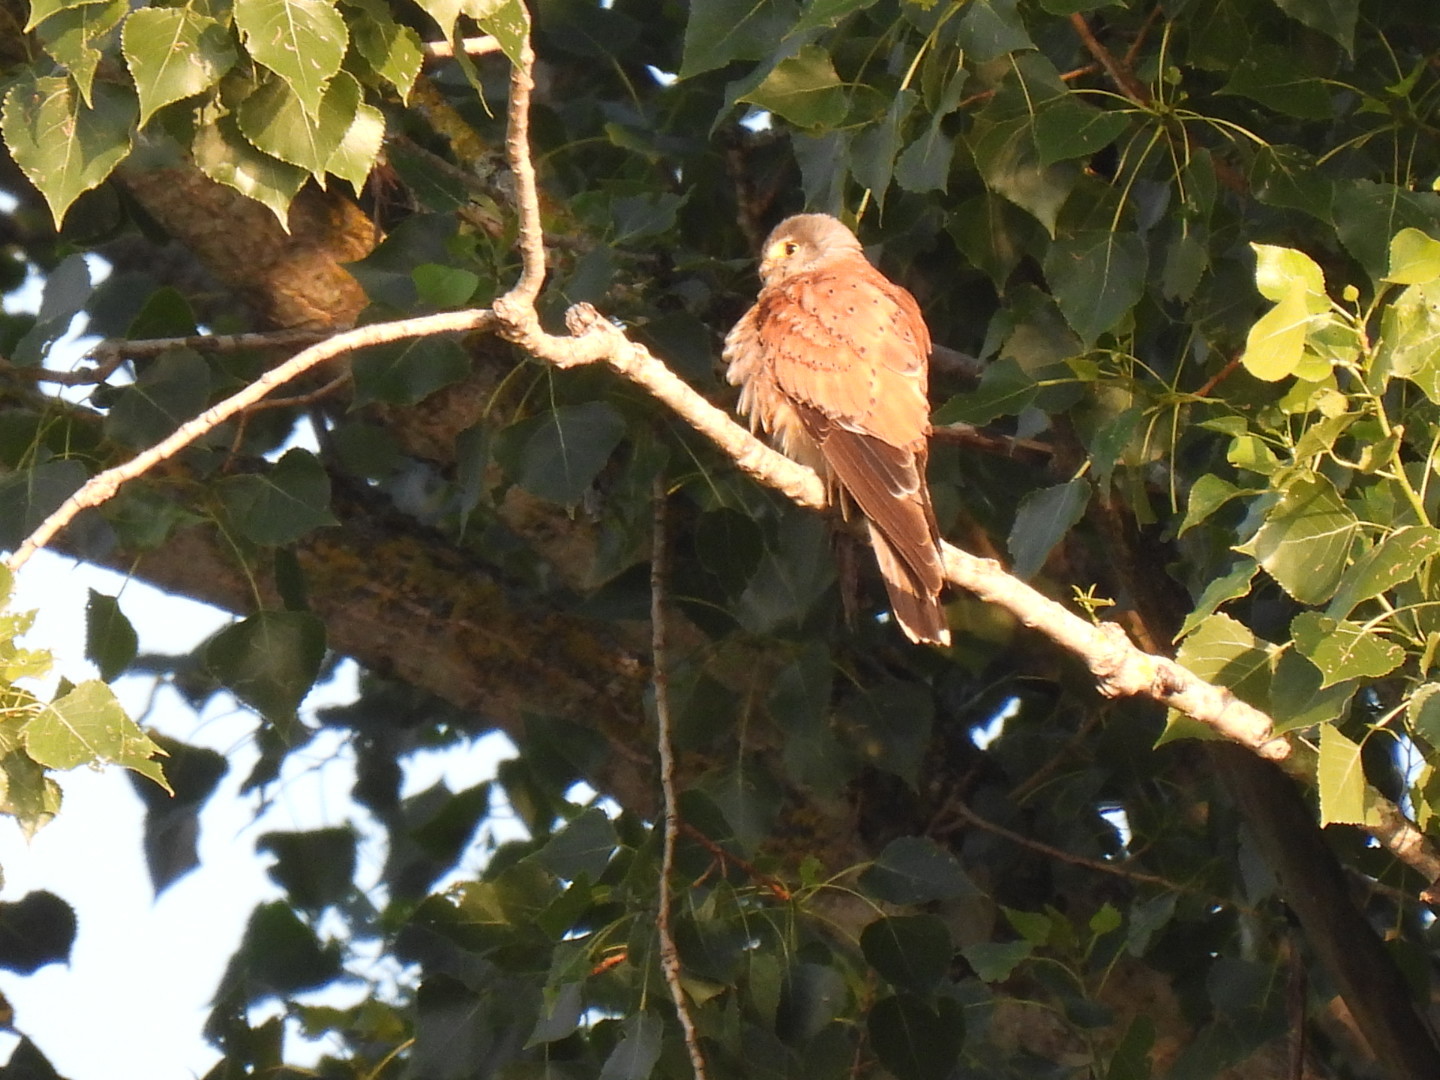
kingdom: Animalia
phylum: Chordata
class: Aves
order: Falconiformes
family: Falconidae
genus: Falco
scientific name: Falco tinnunculus
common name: Common kestrel
